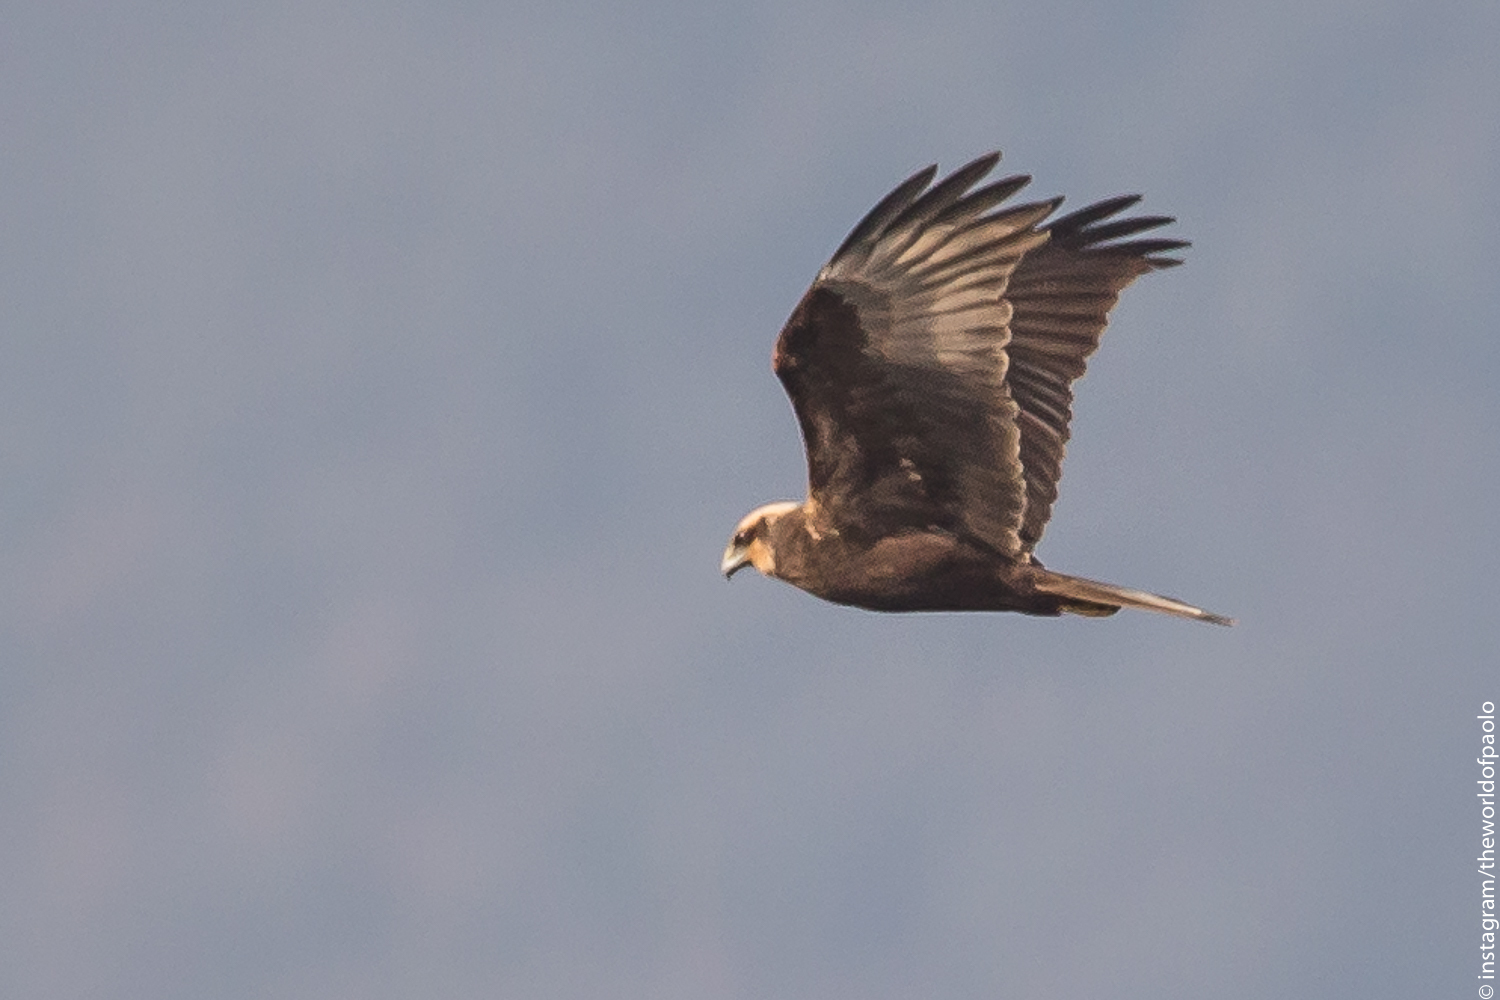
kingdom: Animalia
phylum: Chordata
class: Aves
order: Accipitriformes
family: Accipitridae
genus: Circus
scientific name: Circus aeruginosus
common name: Western marsh harrier
